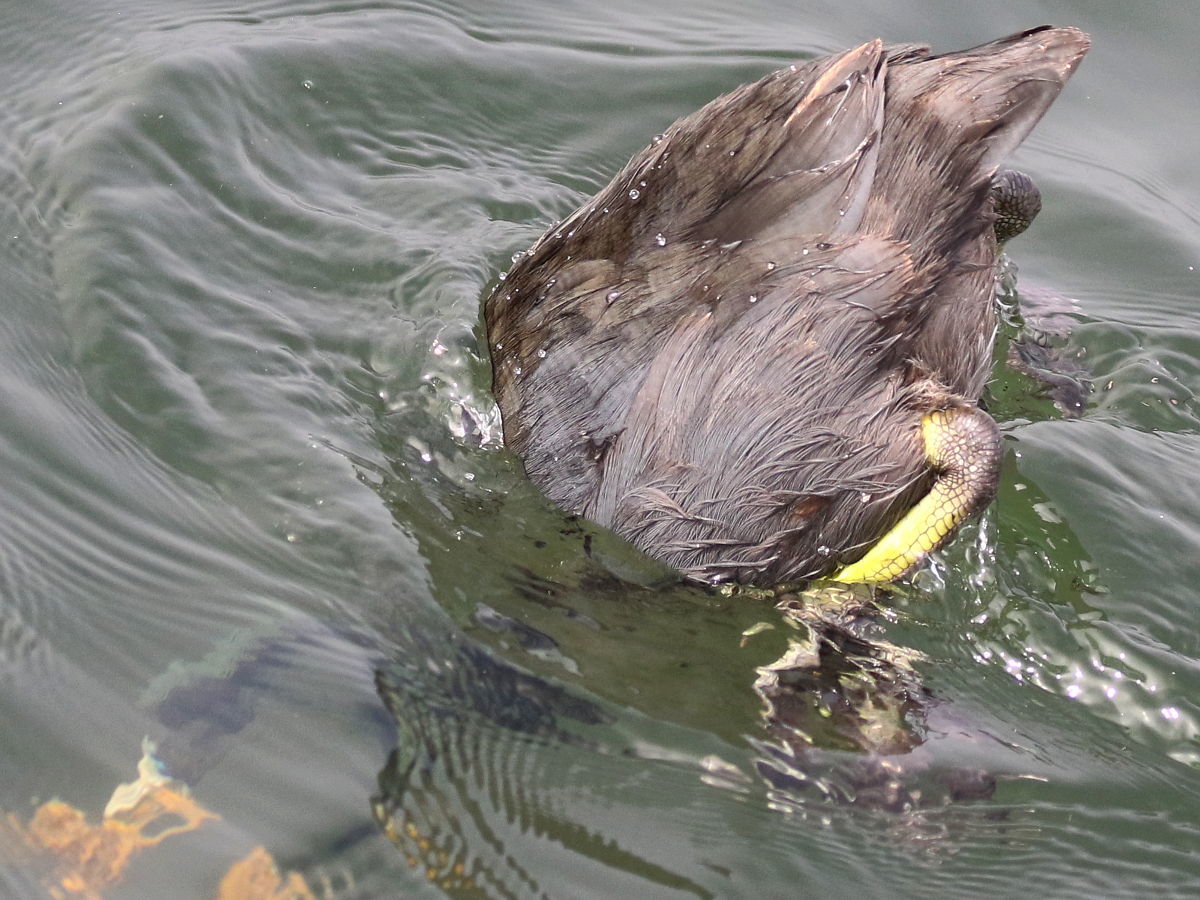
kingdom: Animalia
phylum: Chordata
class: Aves
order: Gruiformes
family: Rallidae
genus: Fulica
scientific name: Fulica americana
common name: American coot
